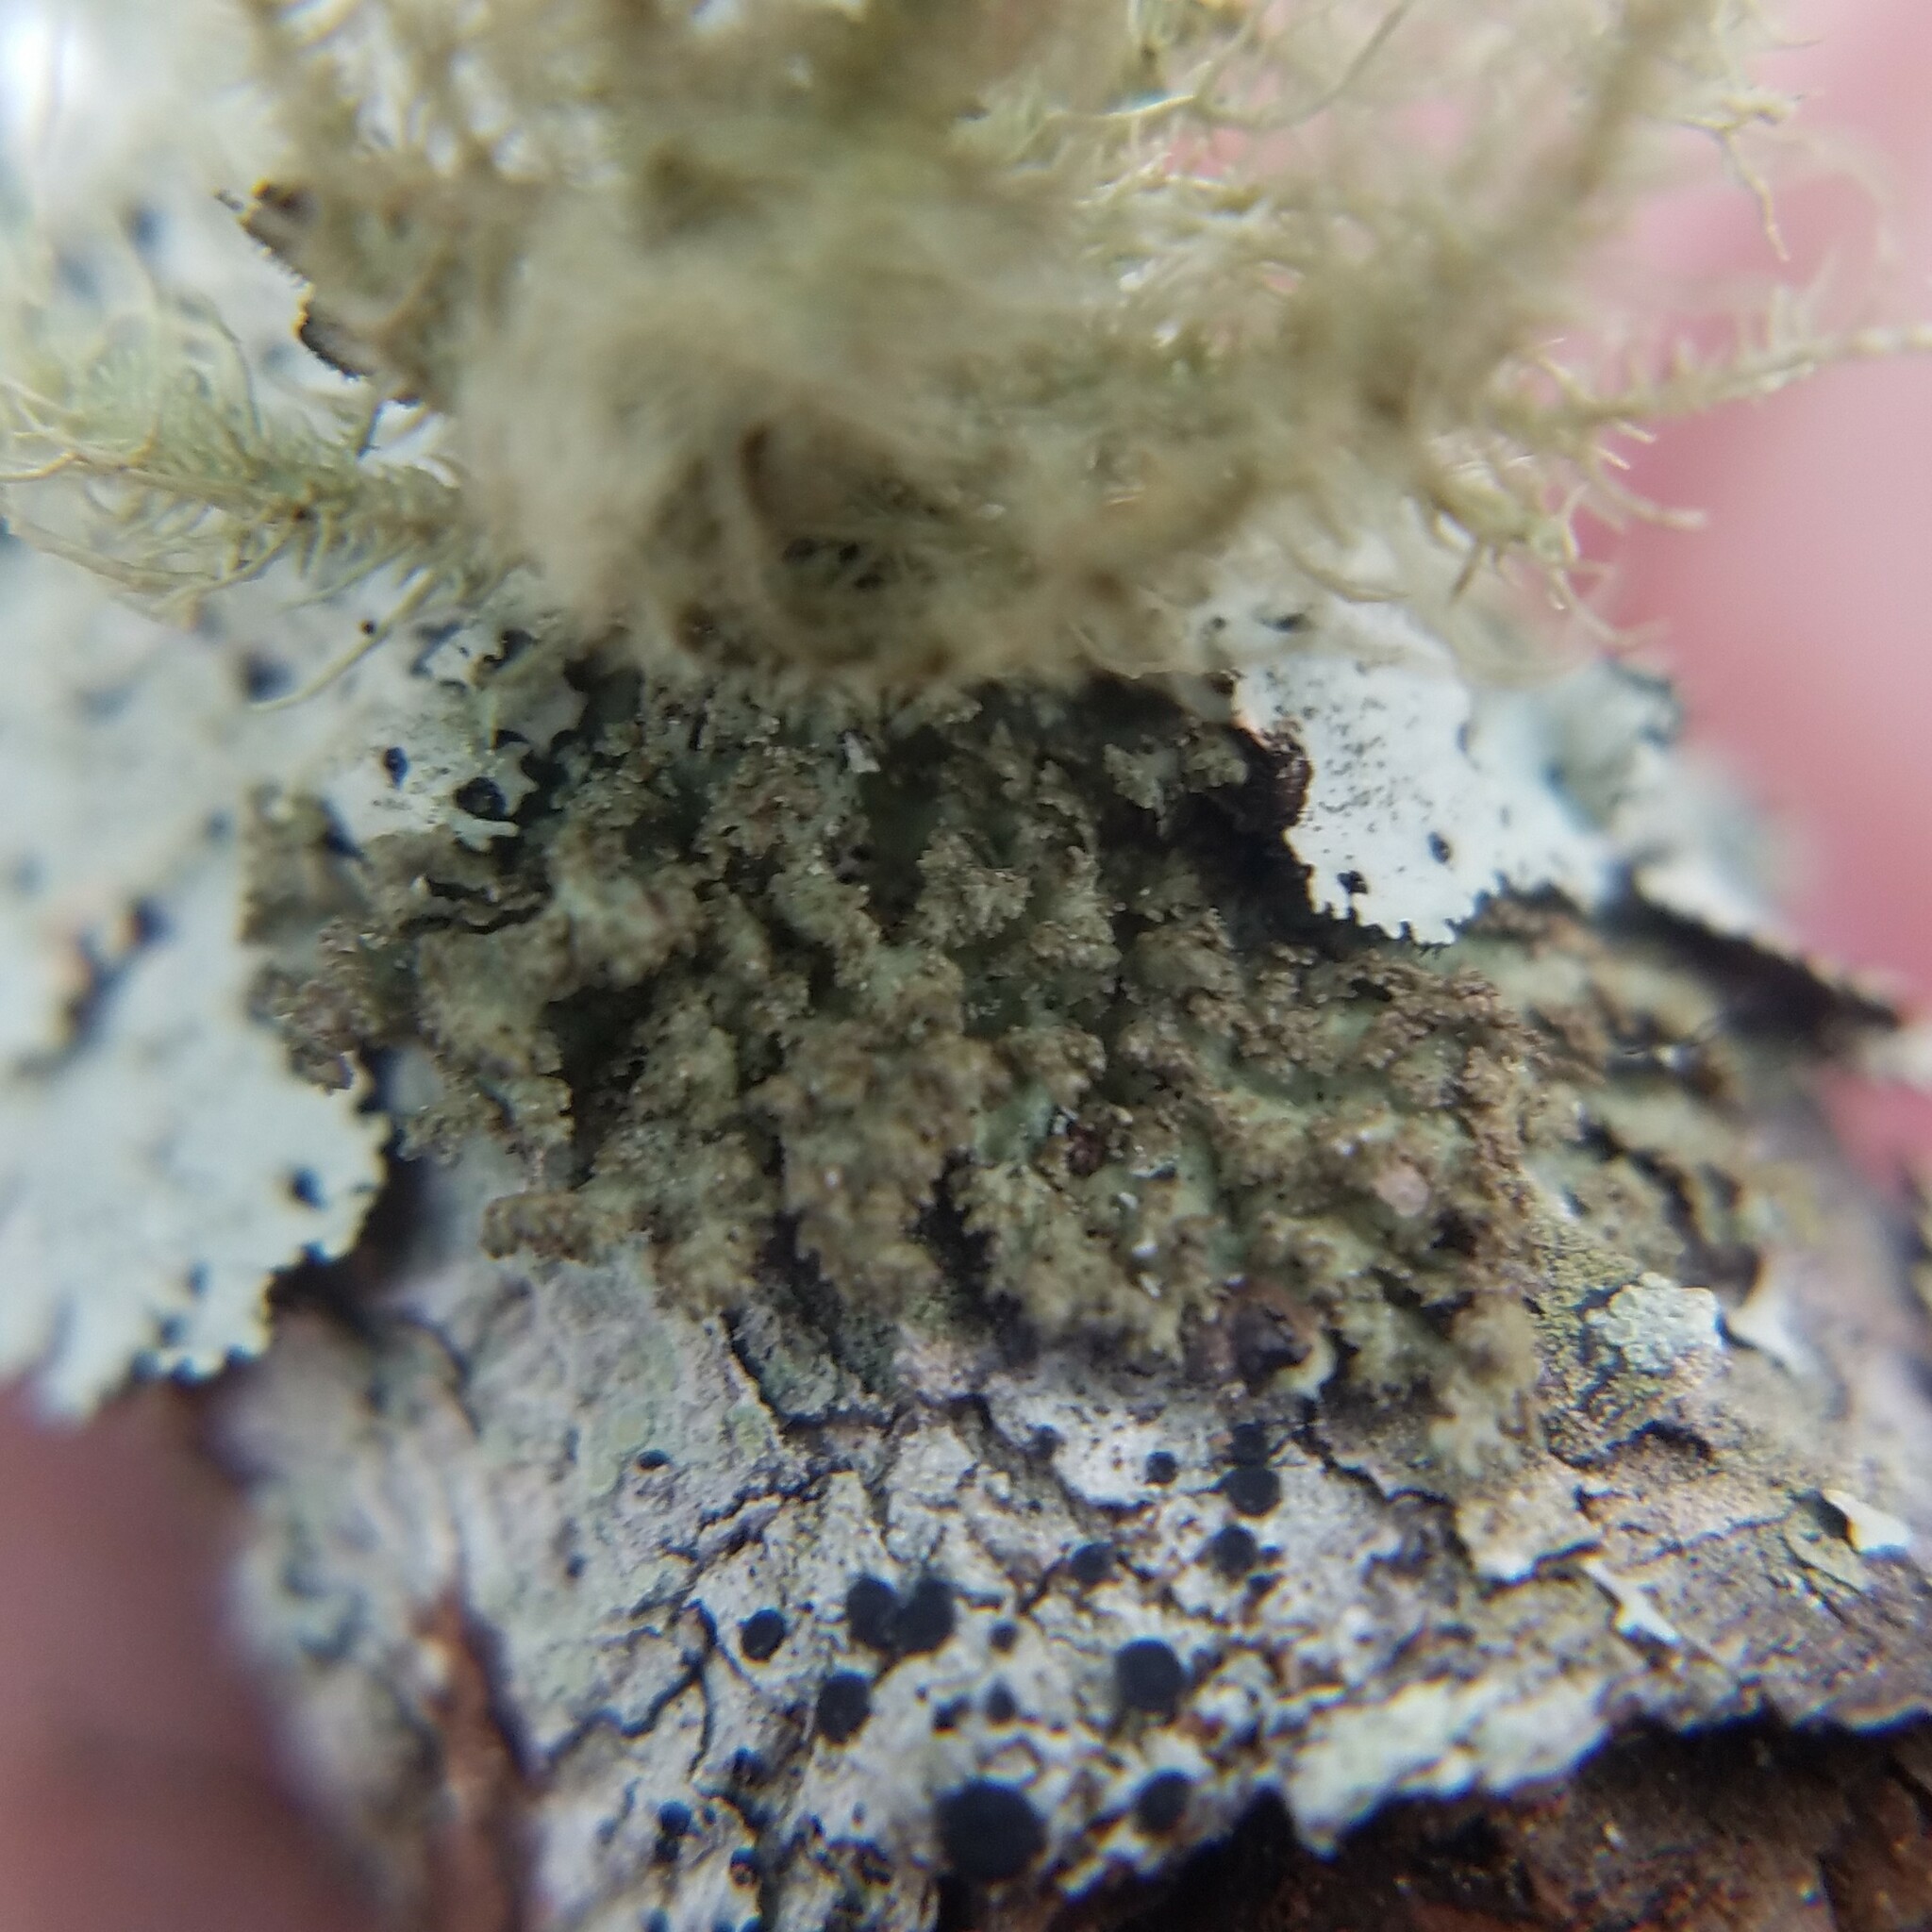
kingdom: Fungi
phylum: Ascomycota
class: Lecanoromycetes
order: Lecanorales
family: Parmeliaceae
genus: Nephromopsis
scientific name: Nephromopsis fendleri
